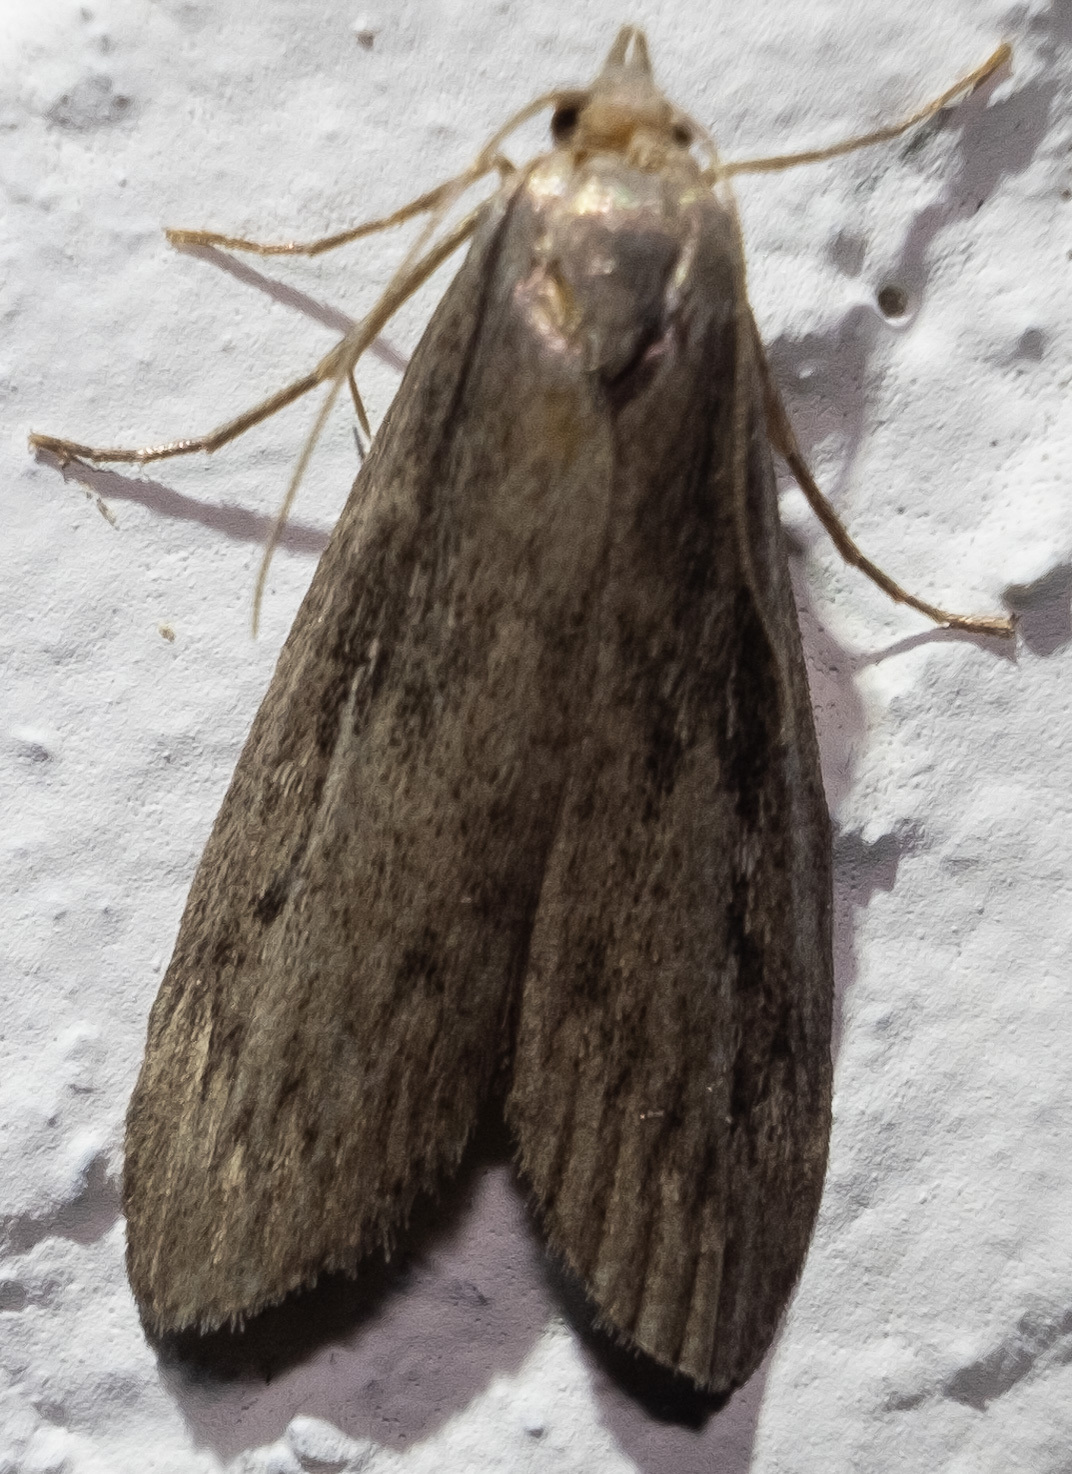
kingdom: Animalia
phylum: Arthropoda
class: Insecta
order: Lepidoptera
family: Pyralidae
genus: Aphomia
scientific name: Aphomia sociella
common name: Bee moth
